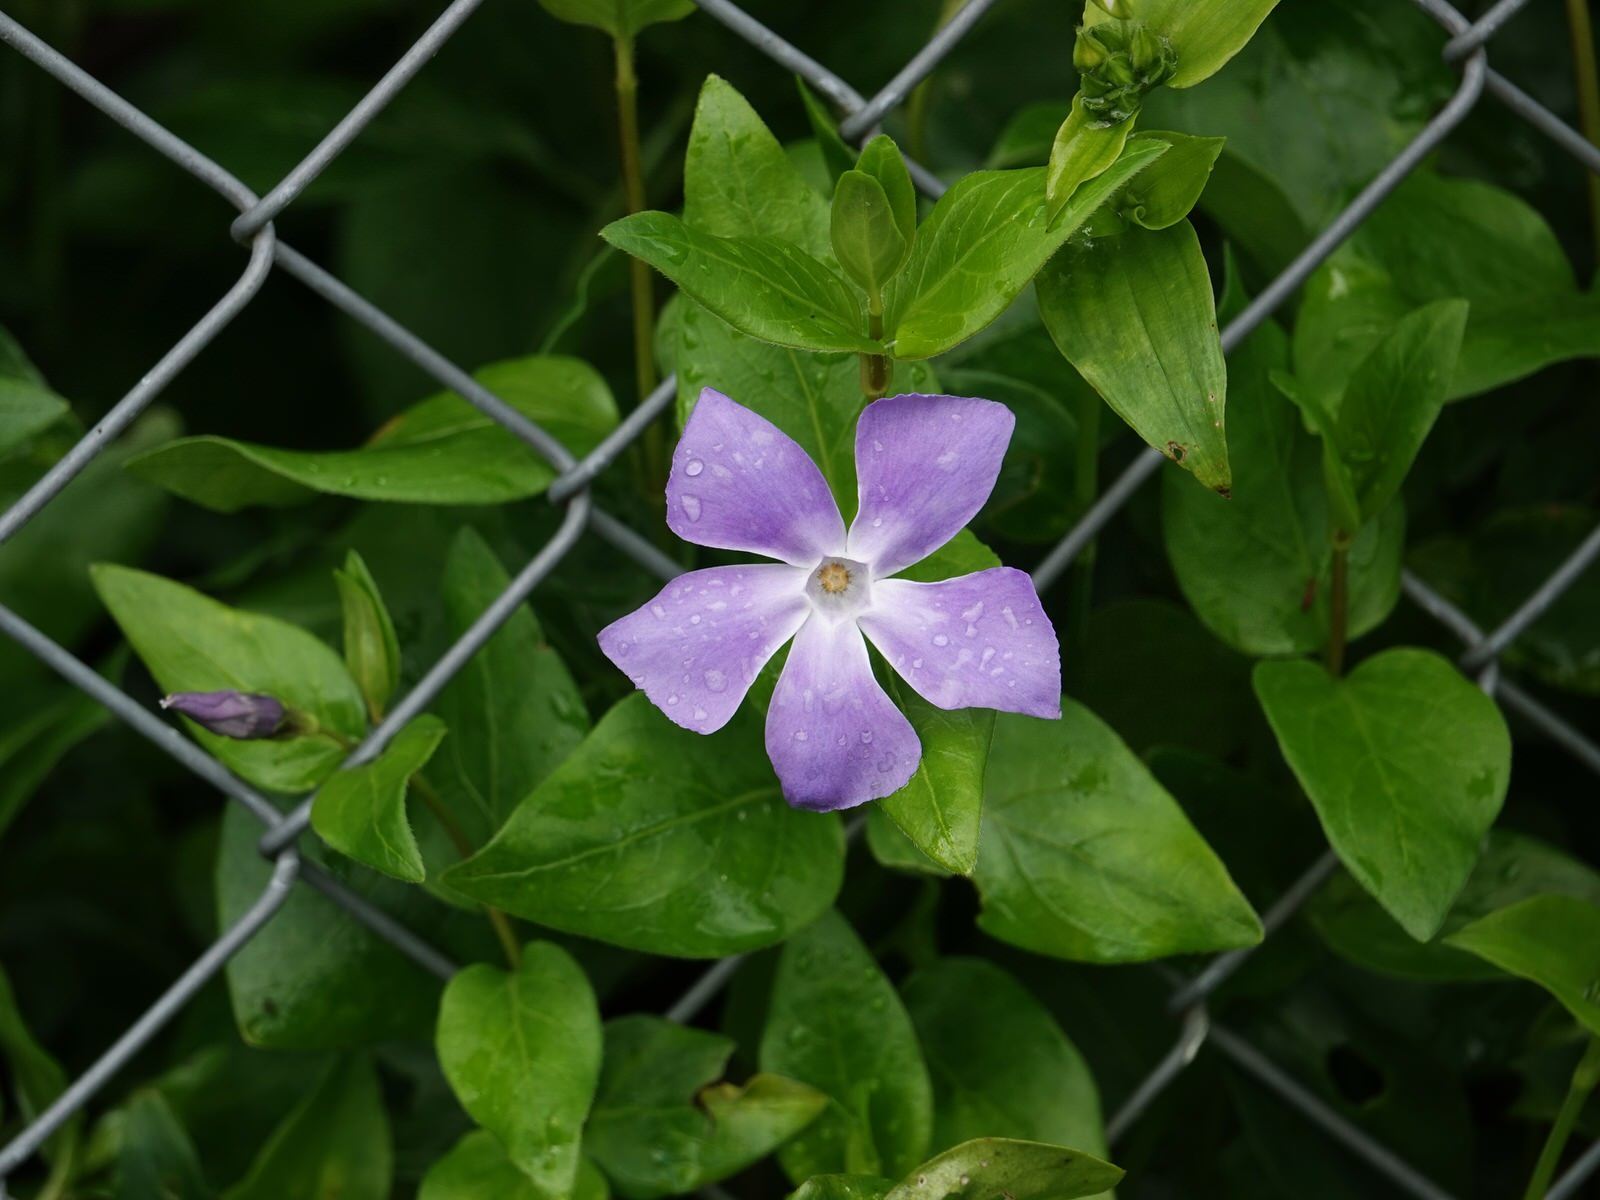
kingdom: Plantae
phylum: Tracheophyta
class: Magnoliopsida
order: Gentianales
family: Apocynaceae
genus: Vinca
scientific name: Vinca major
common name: Greater periwinkle
